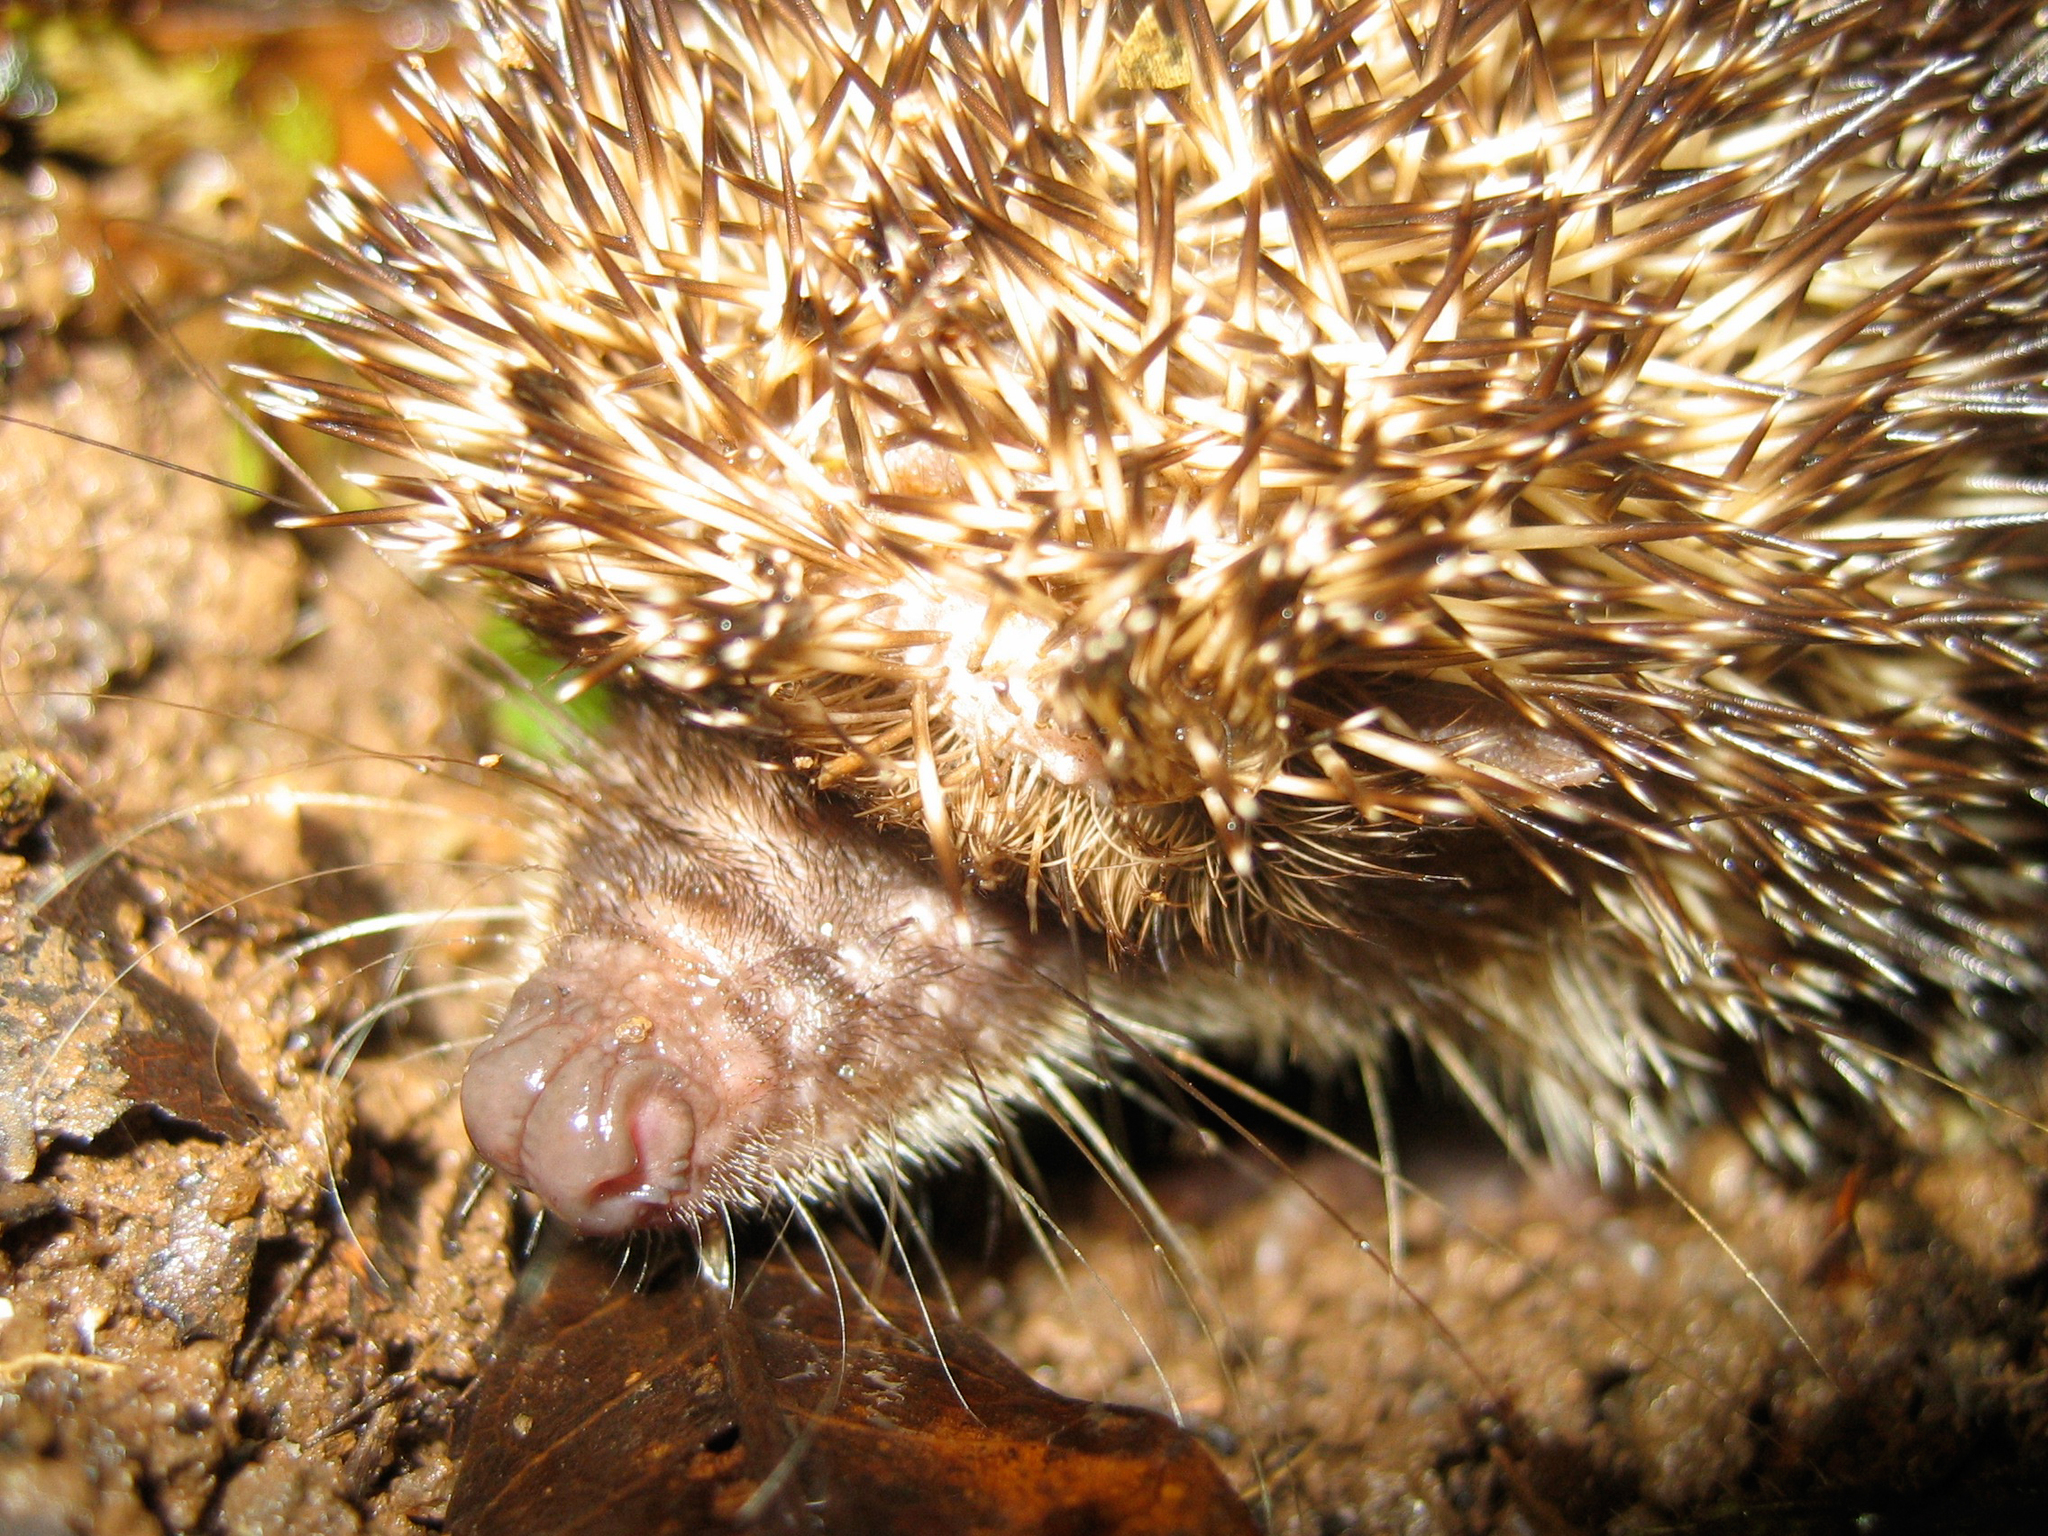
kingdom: Animalia
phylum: Chordata
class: Mammalia
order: Afrosoricida
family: Tenrecidae
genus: Setifer
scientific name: Setifer setosus
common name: Greater hedgehog tenrec
